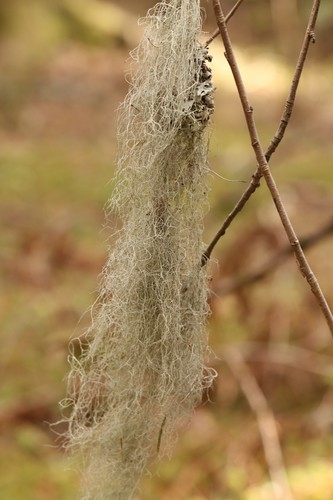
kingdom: Fungi
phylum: Ascomycota
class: Lecanoromycetes
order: Lecanorales
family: Parmeliaceae
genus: Bryoria
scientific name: Bryoria
